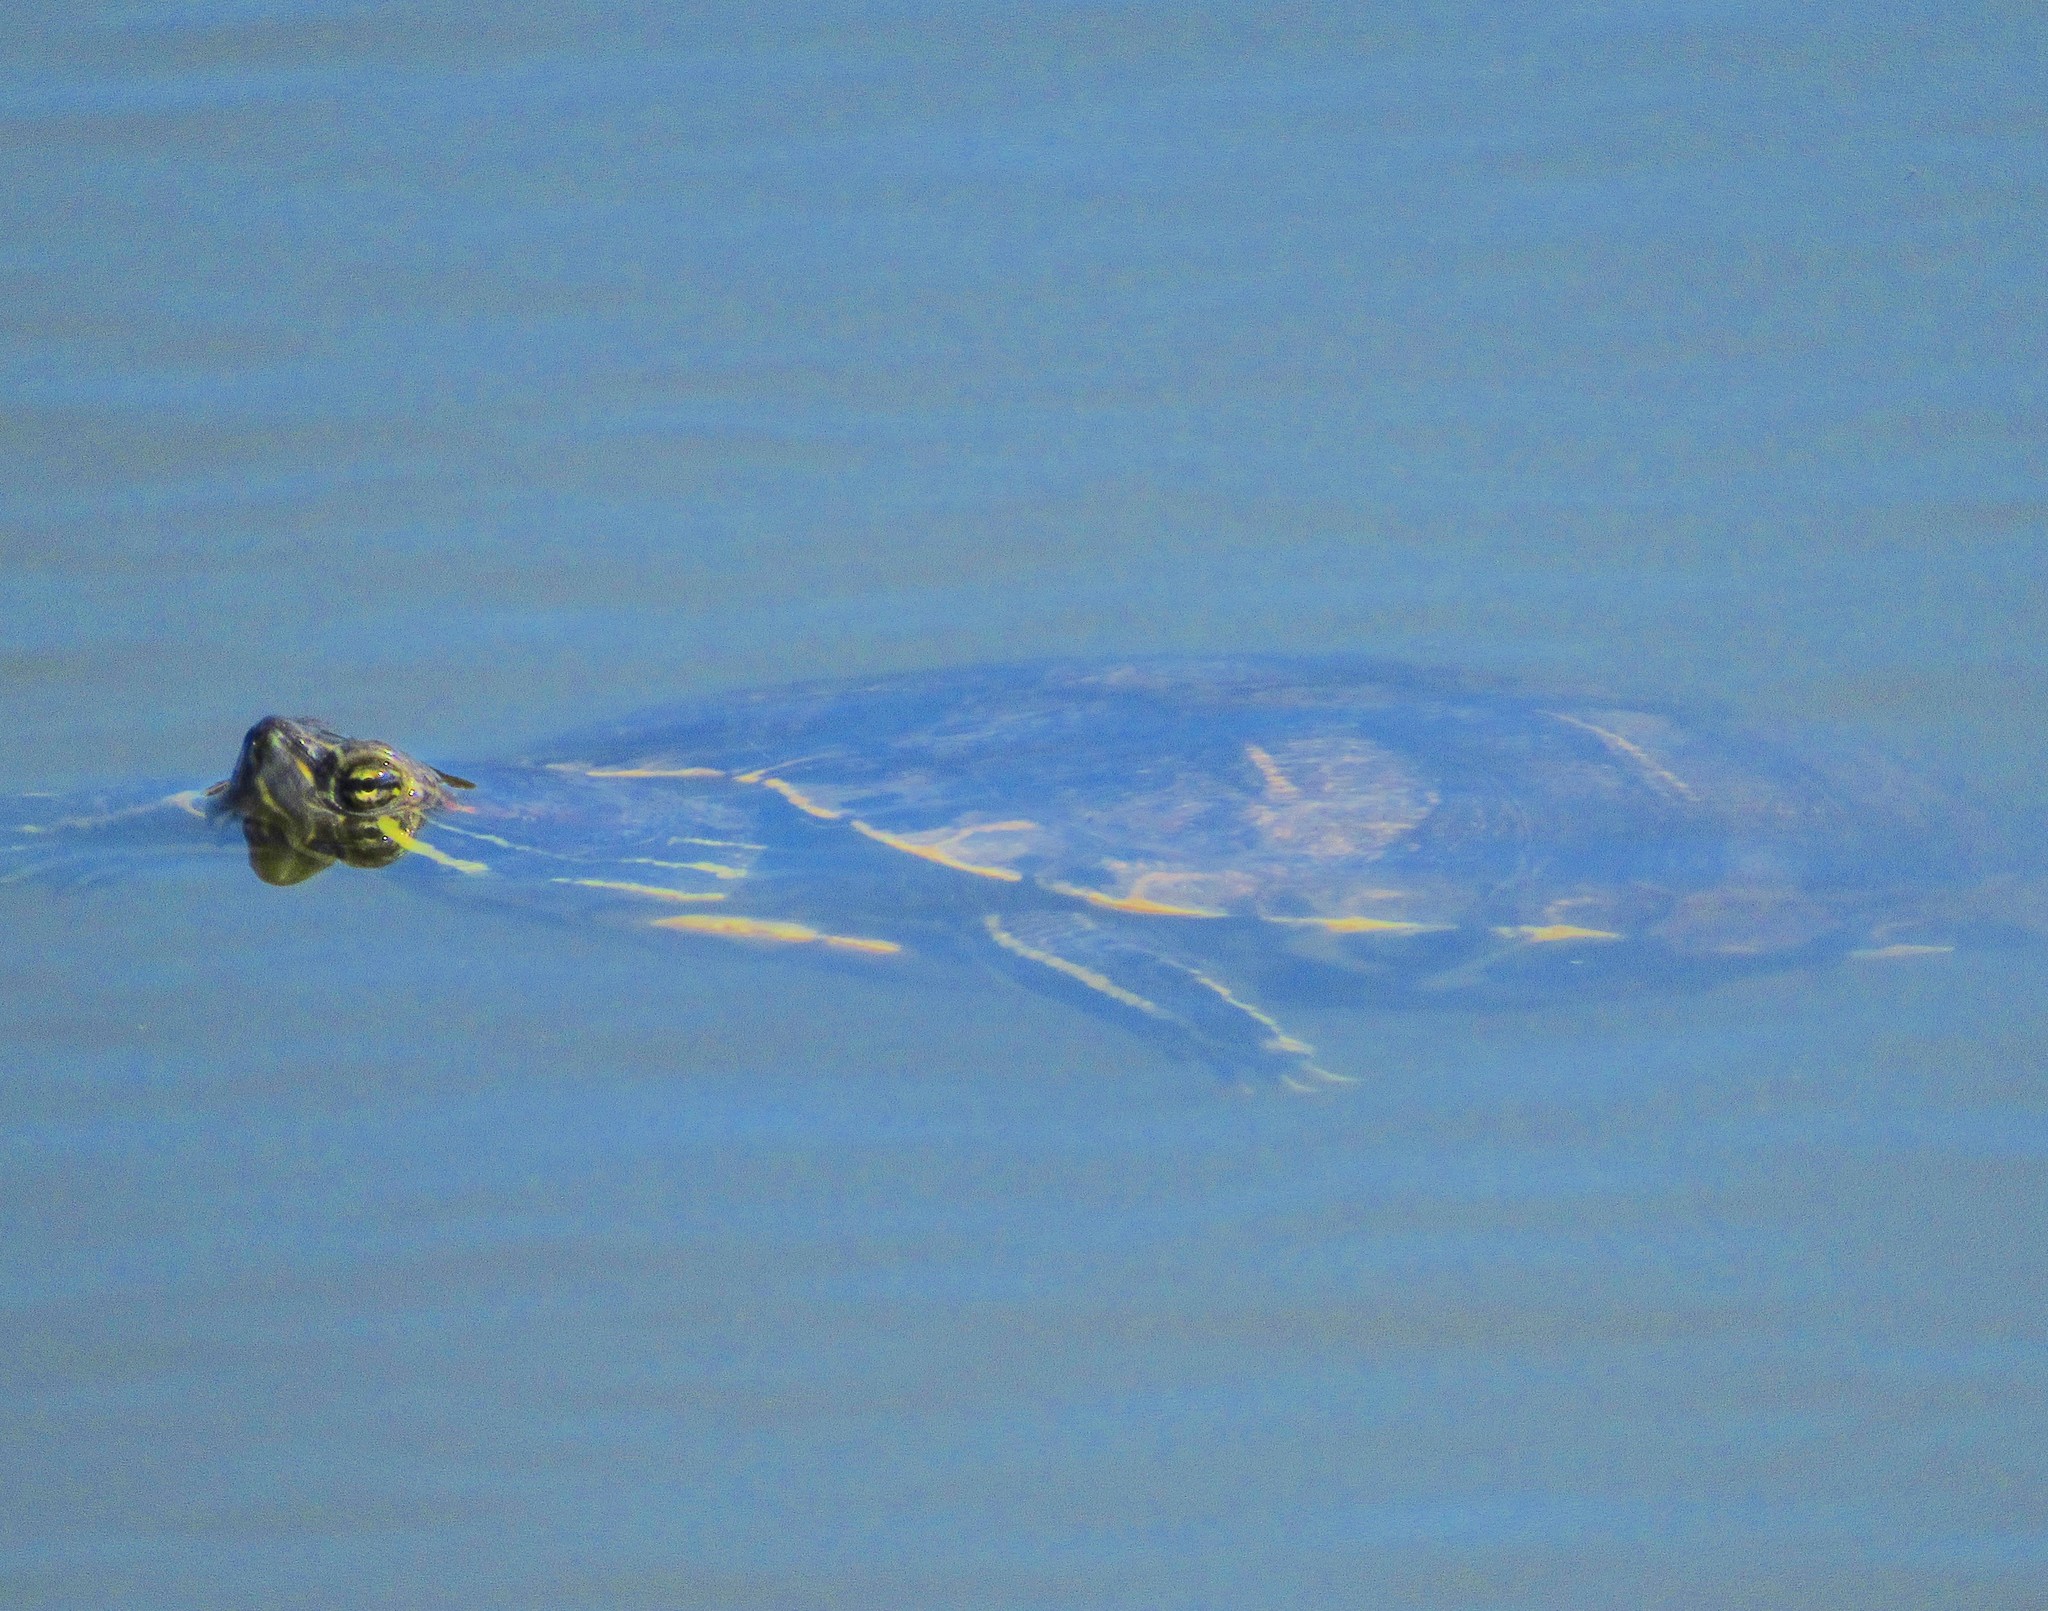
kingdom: Animalia
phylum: Chordata
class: Testudines
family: Emydidae
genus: Trachemys
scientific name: Trachemys dorbigni
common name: Black-bellied slider
